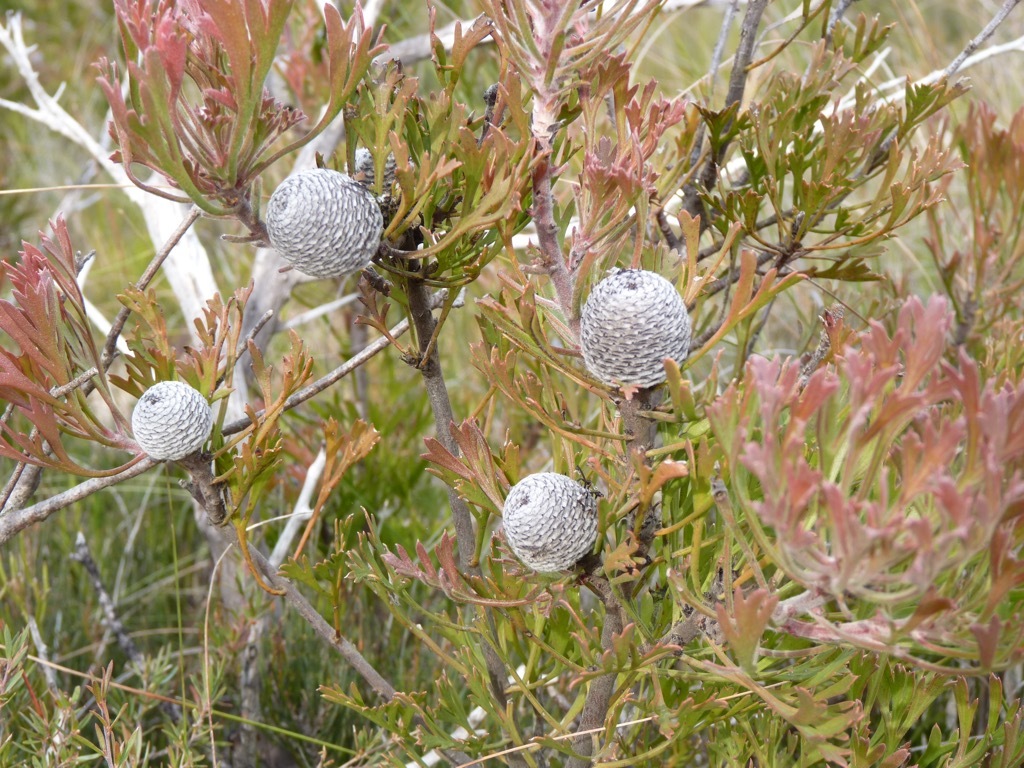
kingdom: Plantae
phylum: Tracheophyta
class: Magnoliopsida
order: Proteales
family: Proteaceae
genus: Isopogon
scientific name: Isopogon anemonifolius
